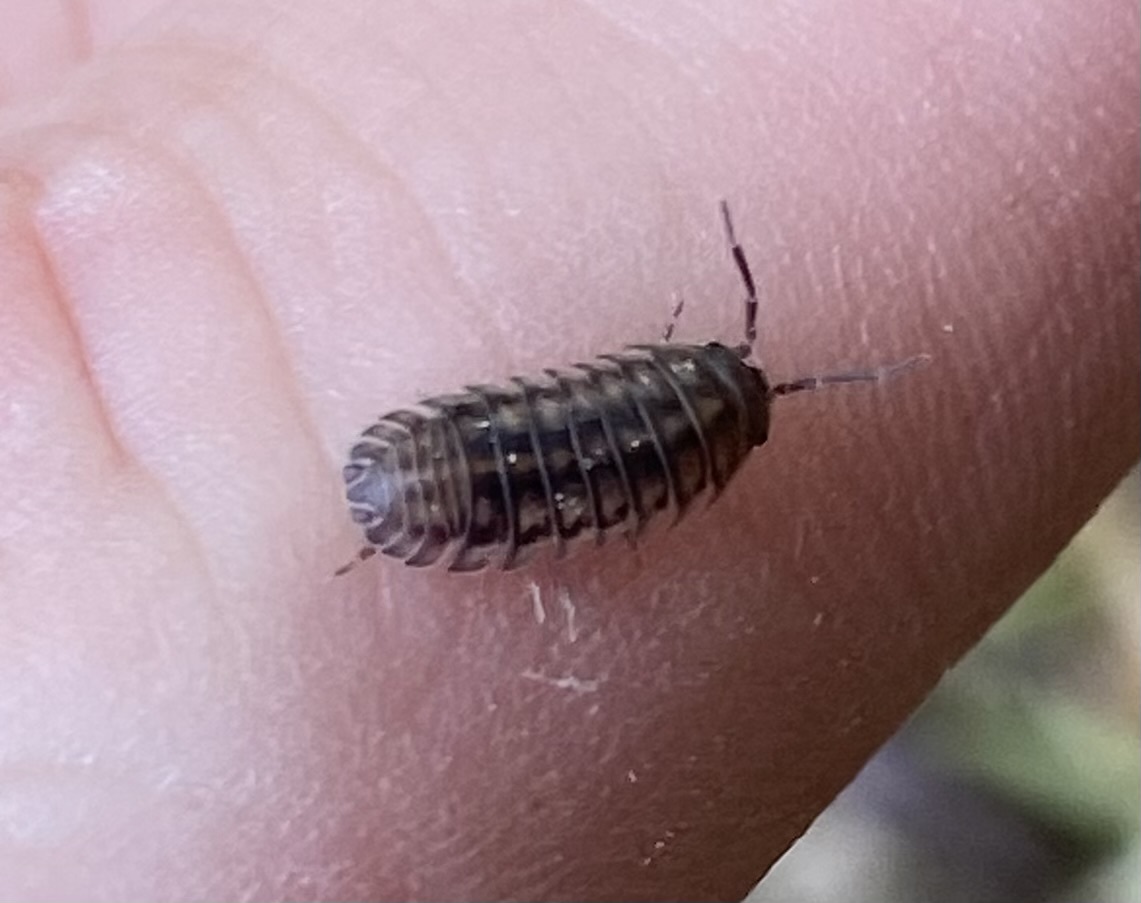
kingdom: Animalia
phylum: Arthropoda
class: Malacostraca
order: Isopoda
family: Armadillidiidae
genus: Armadillidium
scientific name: Armadillidium nasatum
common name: Isopod
